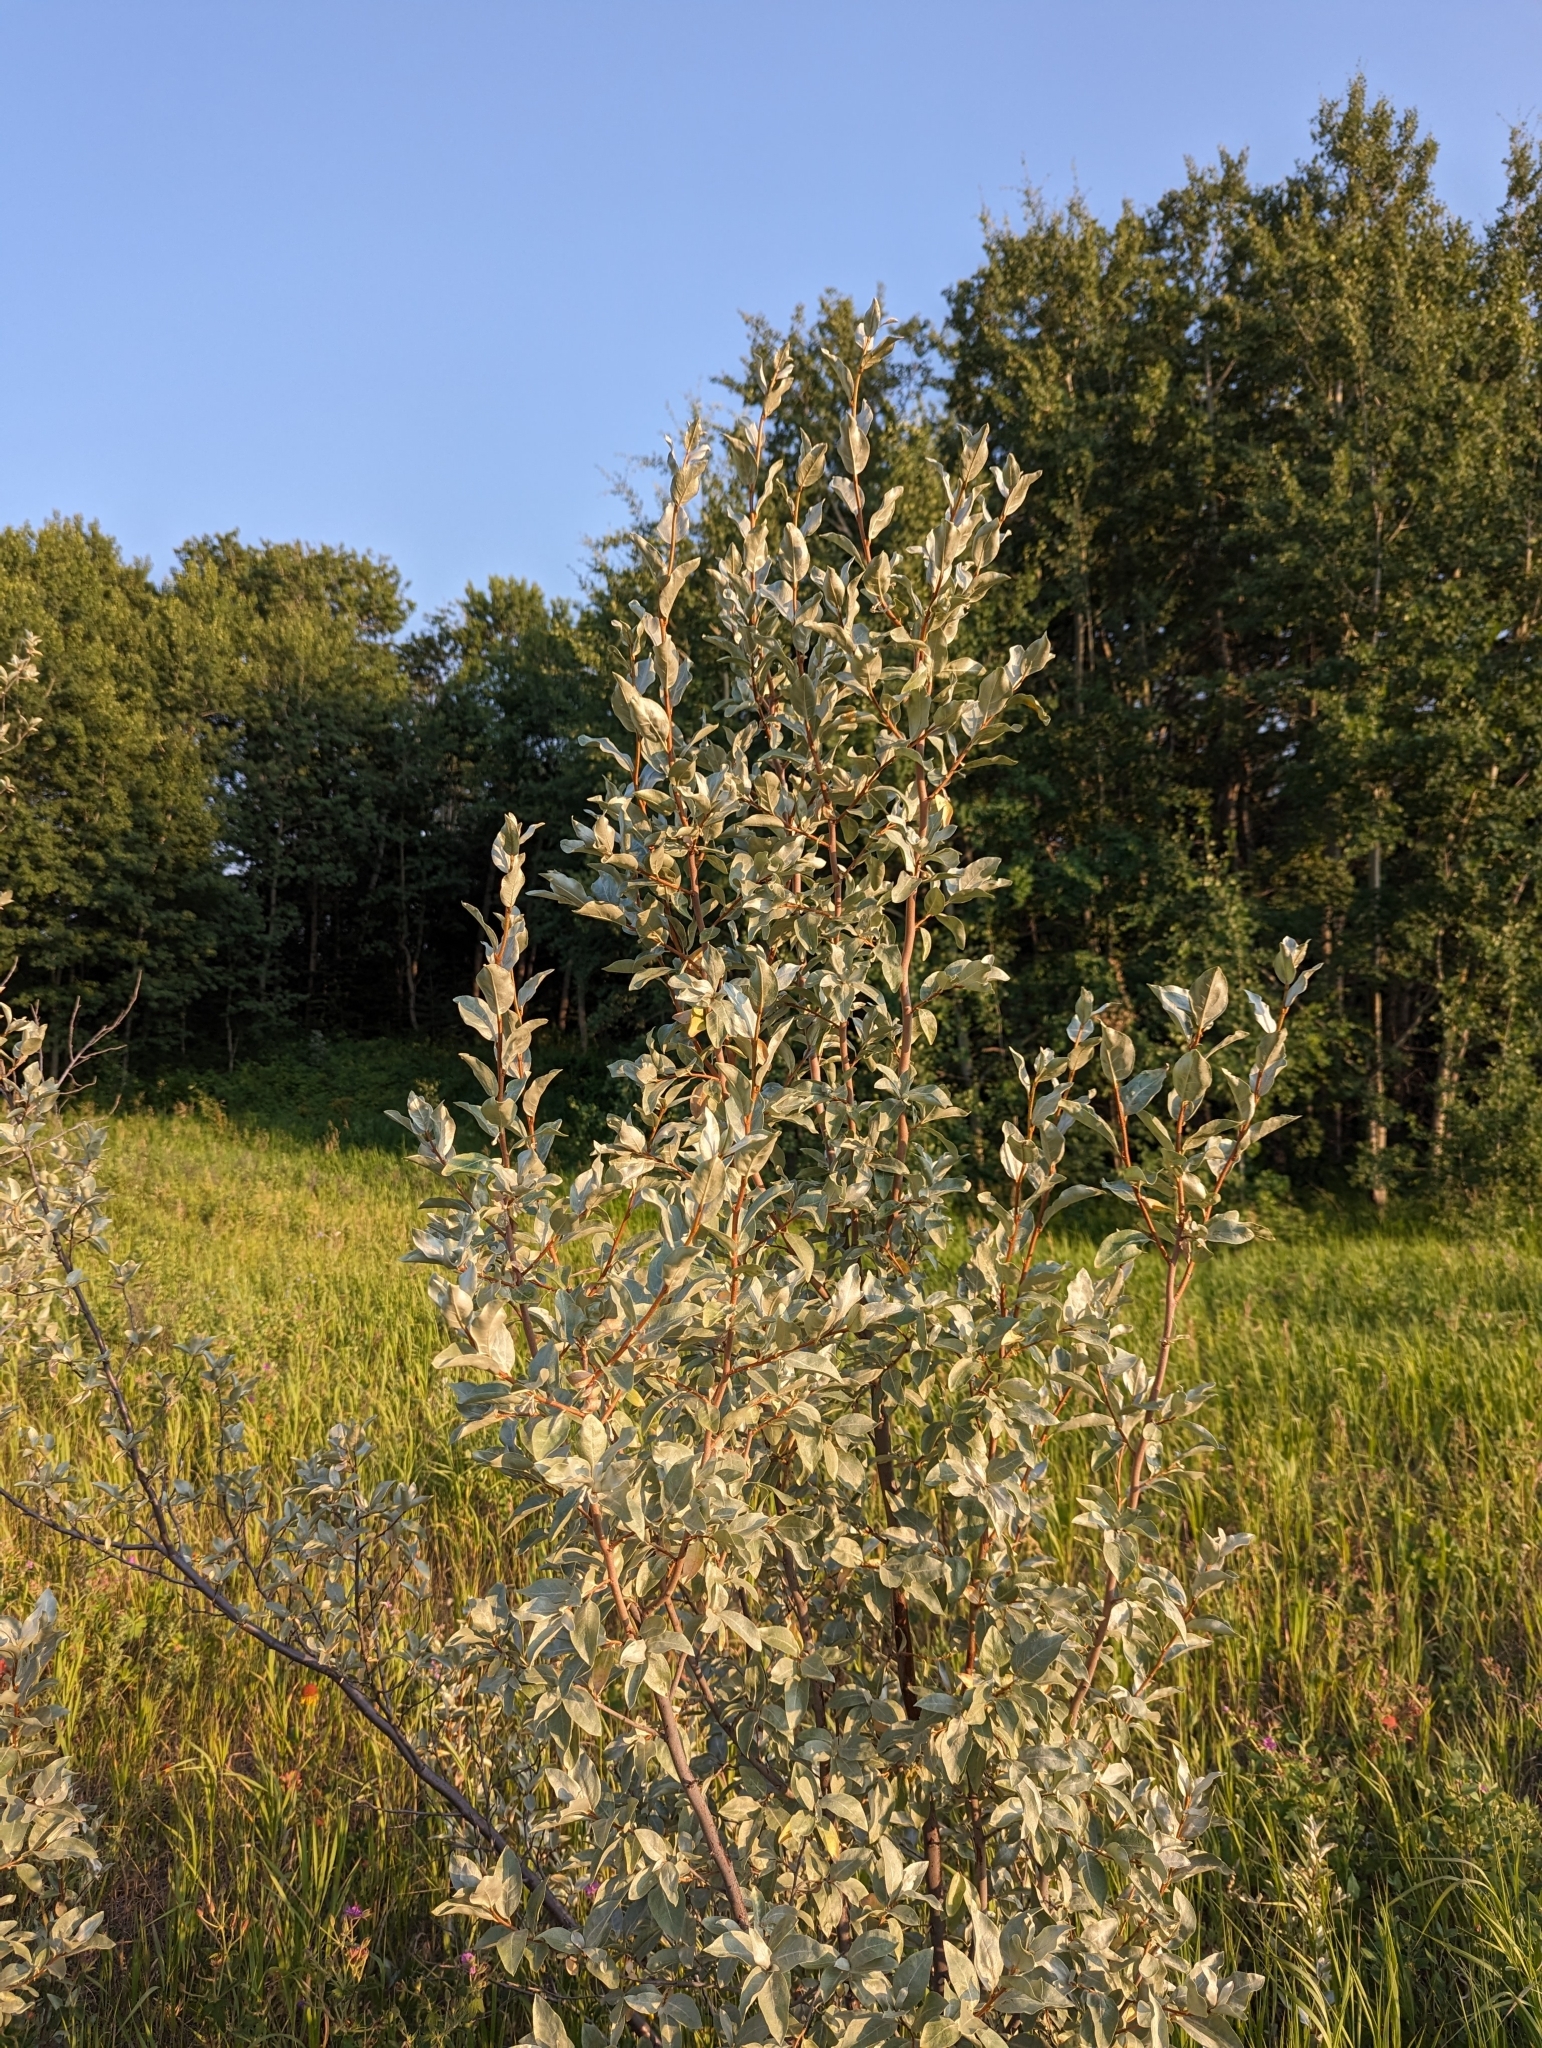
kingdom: Plantae
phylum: Tracheophyta
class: Magnoliopsida
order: Rosales
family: Elaeagnaceae
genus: Elaeagnus
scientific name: Elaeagnus commutata
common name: Silverberry
